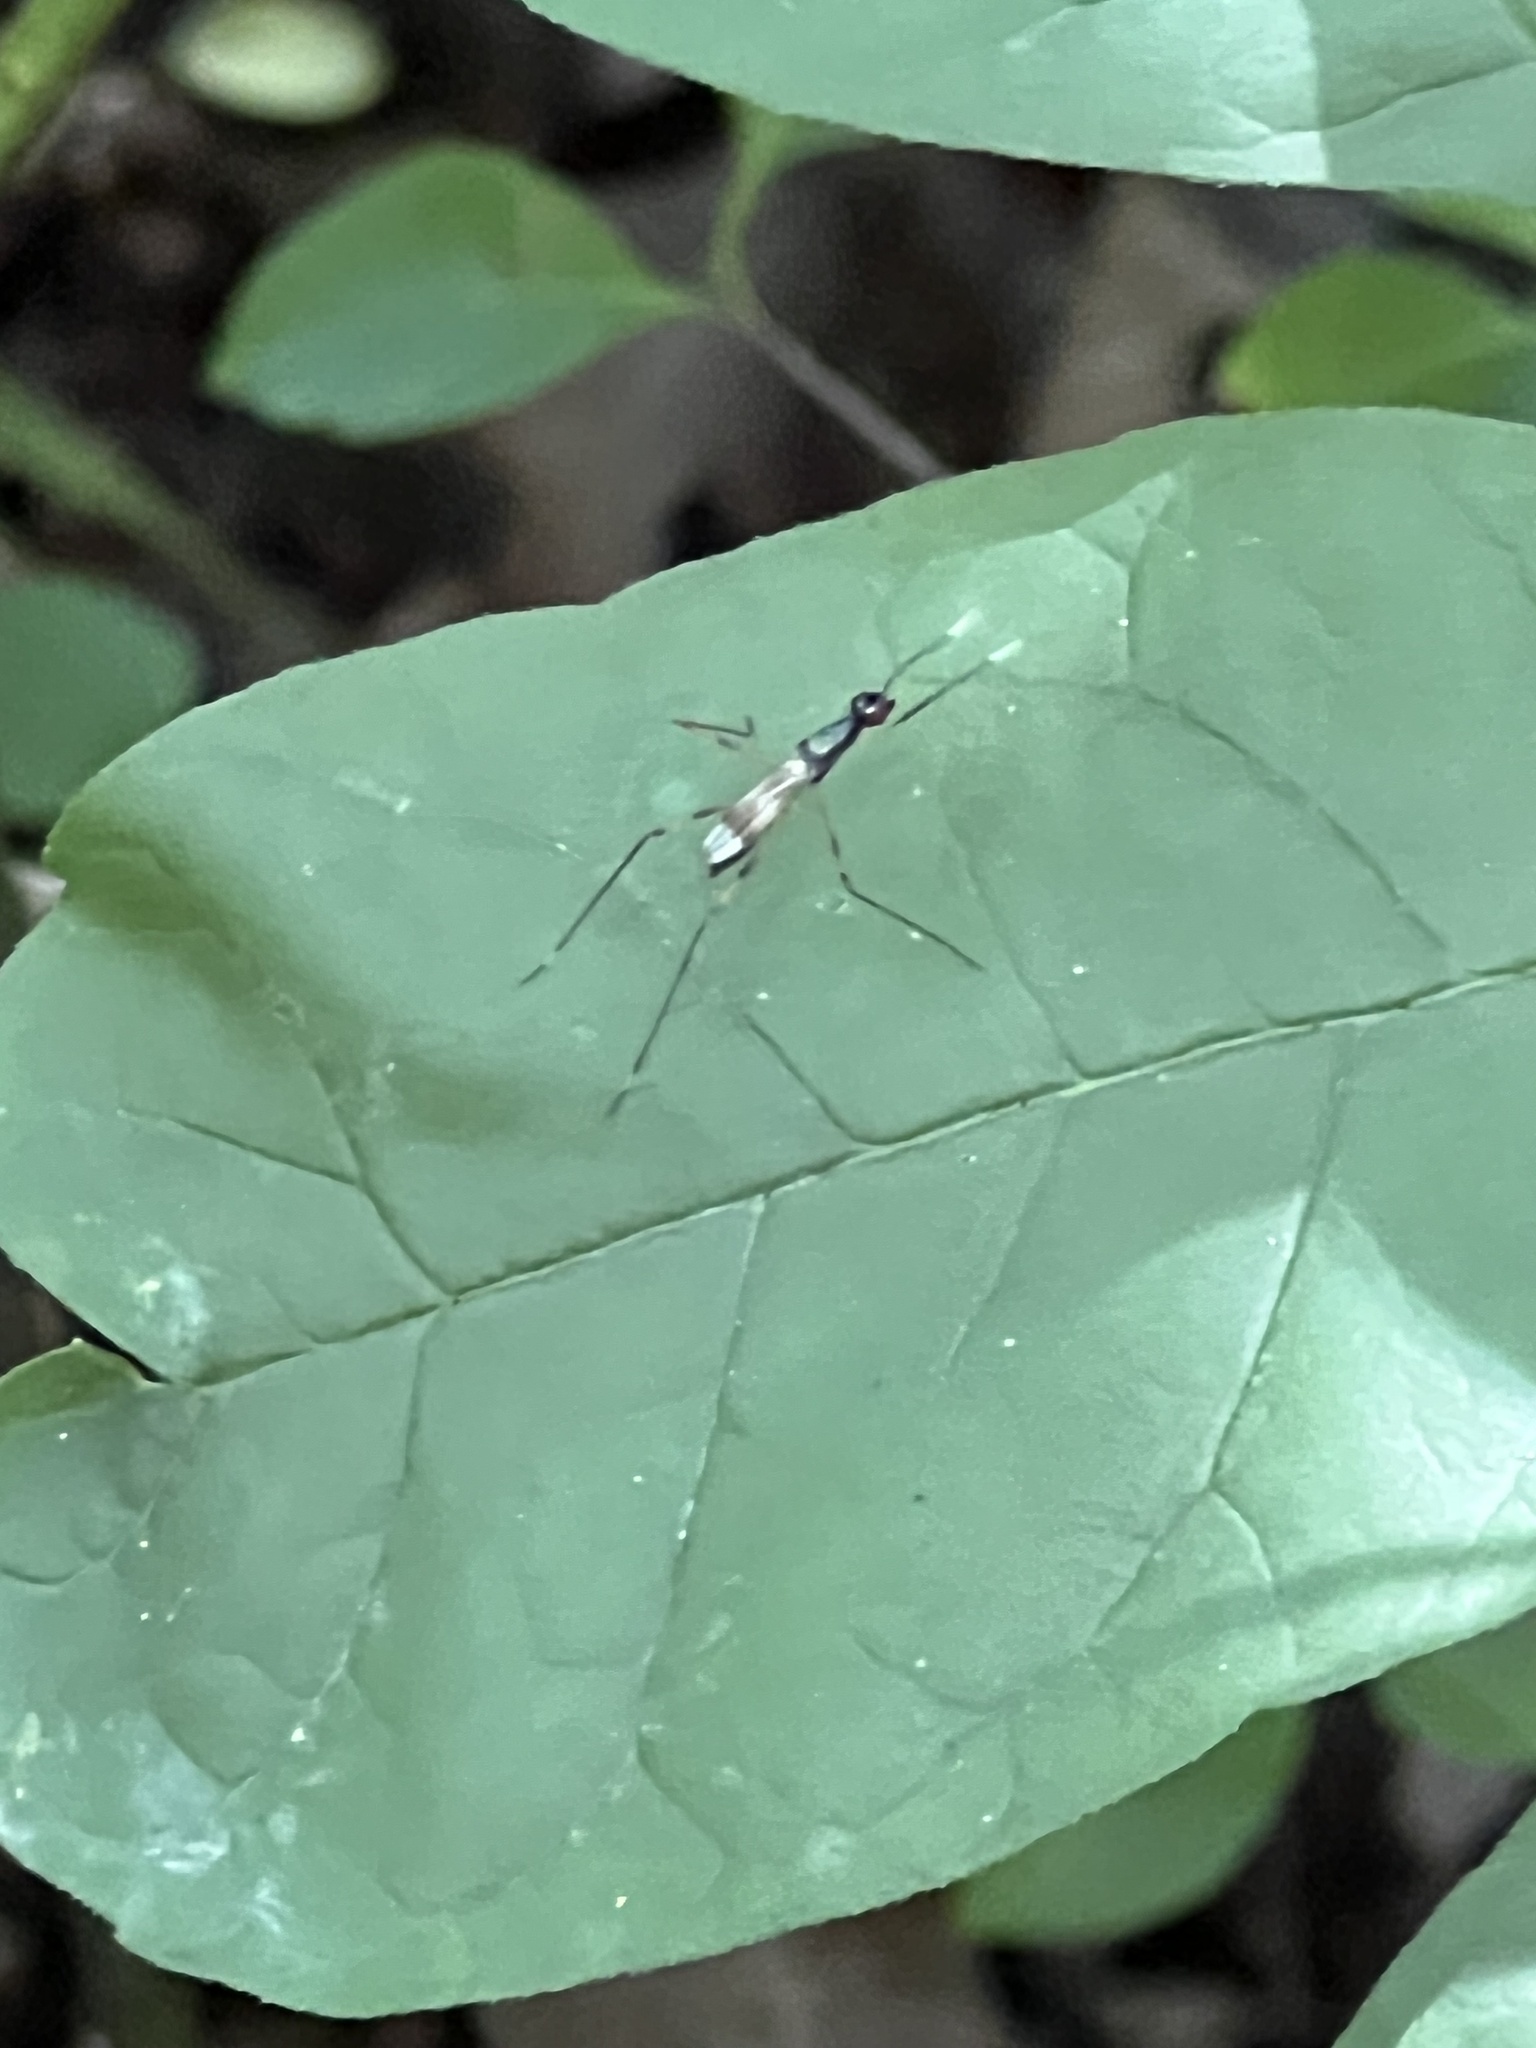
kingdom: Animalia
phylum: Arthropoda
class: Insecta
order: Diptera
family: Micropezidae
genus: Rainieria
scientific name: Rainieria antennaepes
